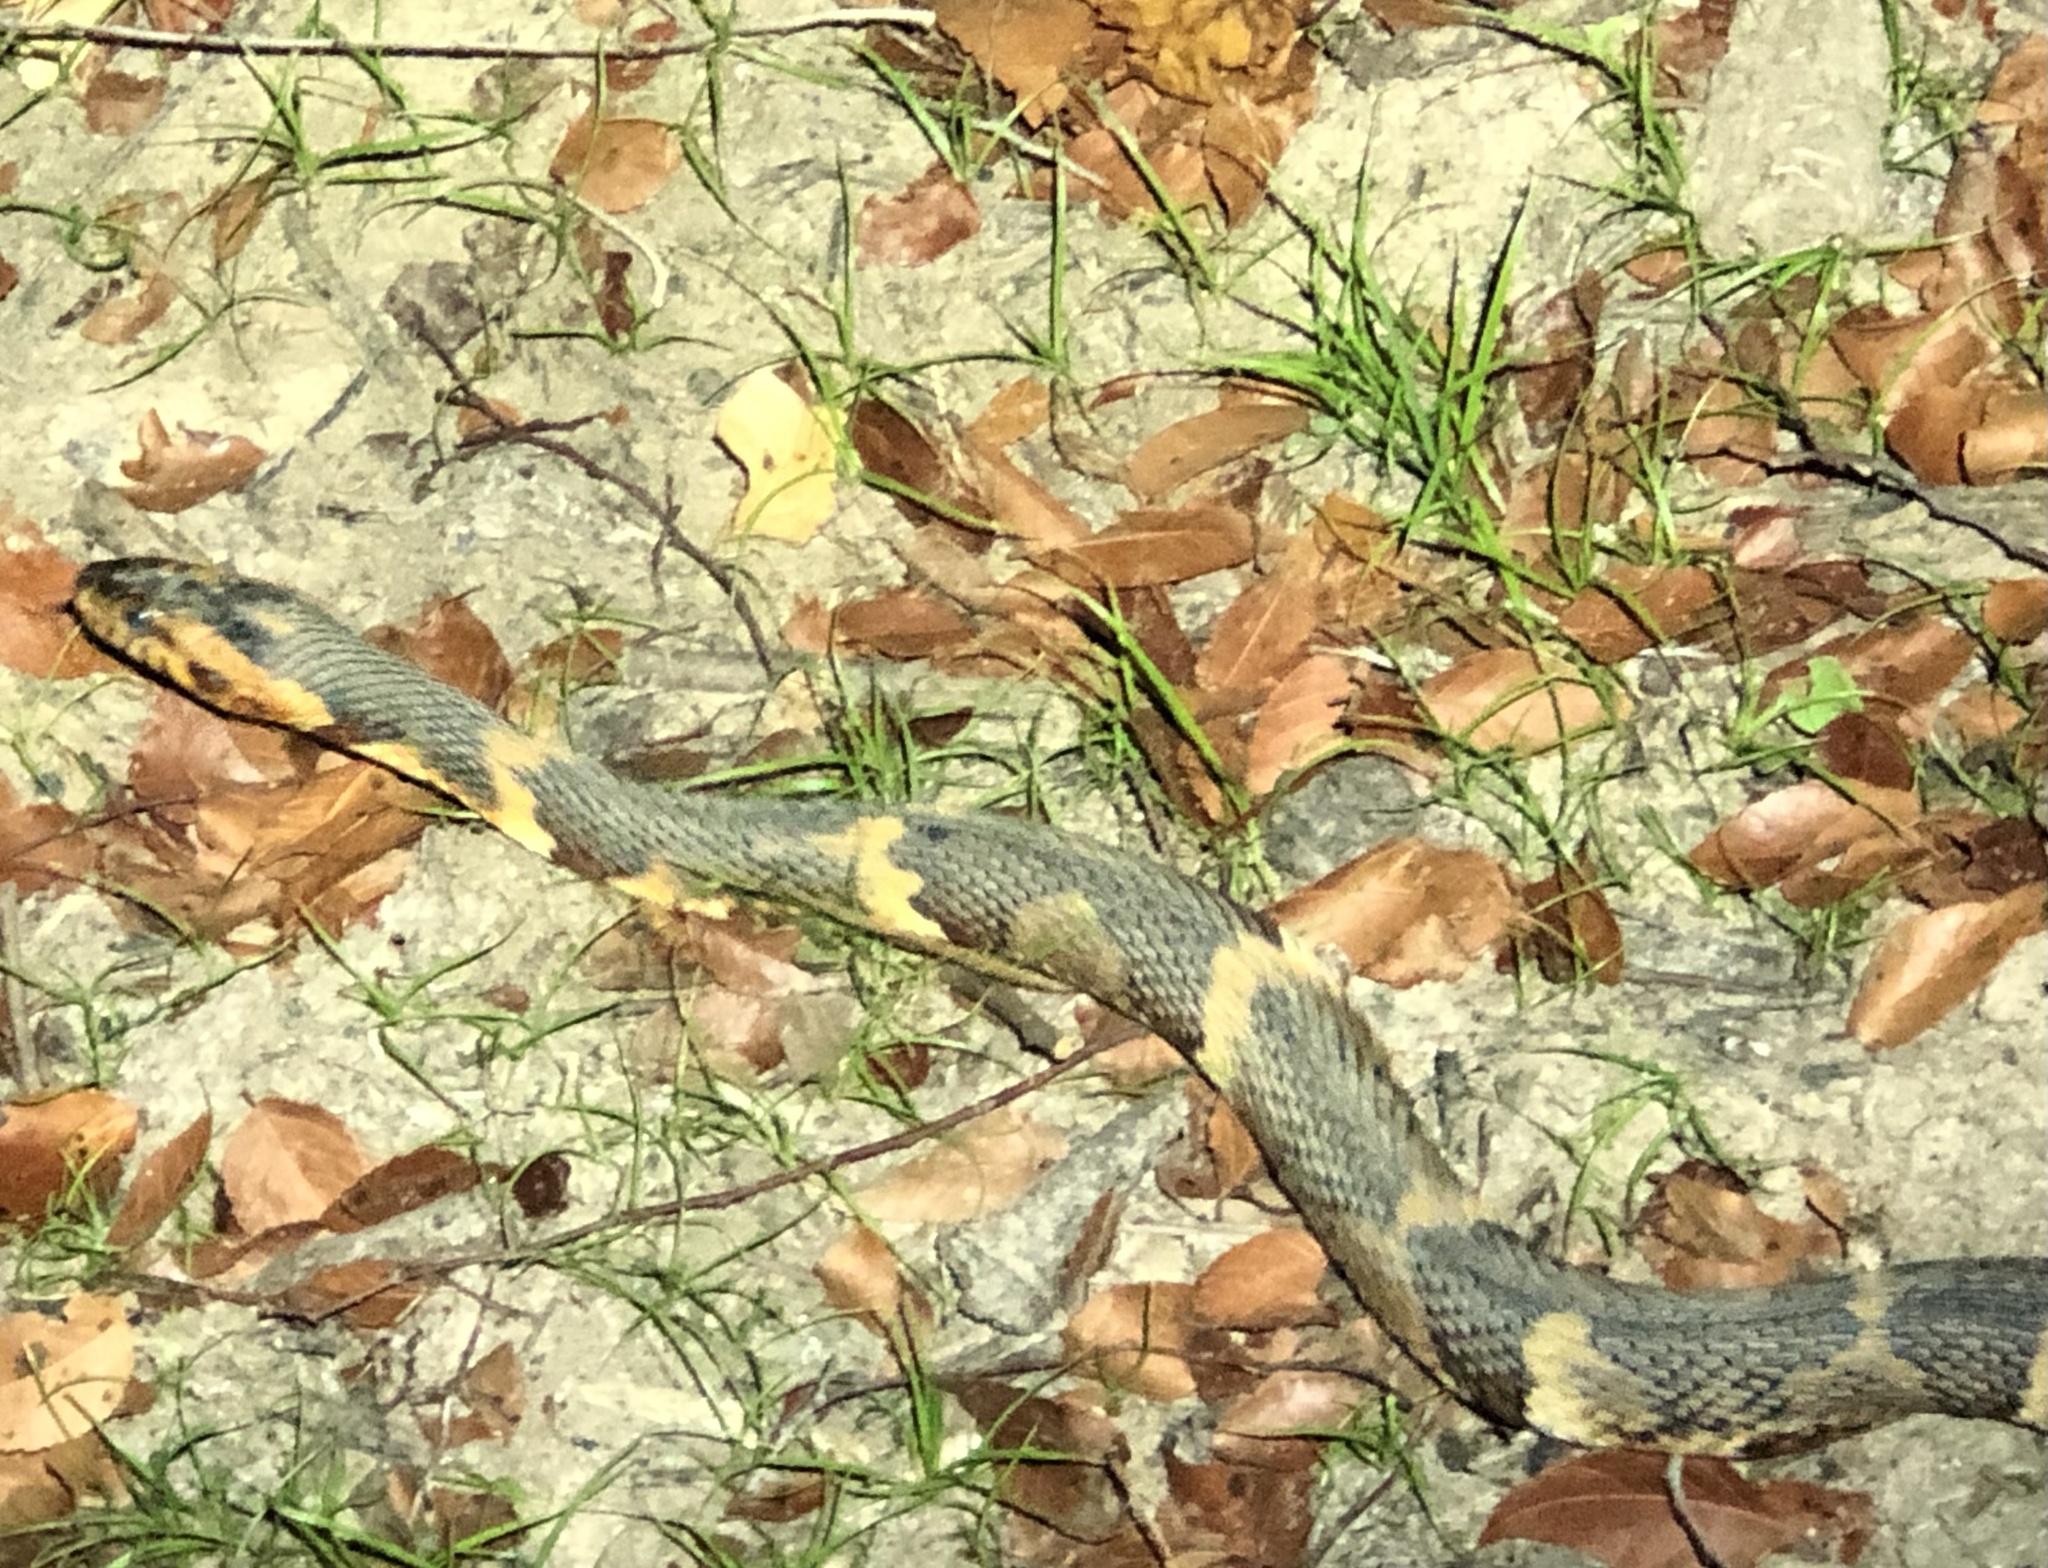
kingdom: Animalia
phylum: Chordata
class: Squamata
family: Colubridae
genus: Nerodia
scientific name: Nerodia fasciata
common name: Southern water snake
